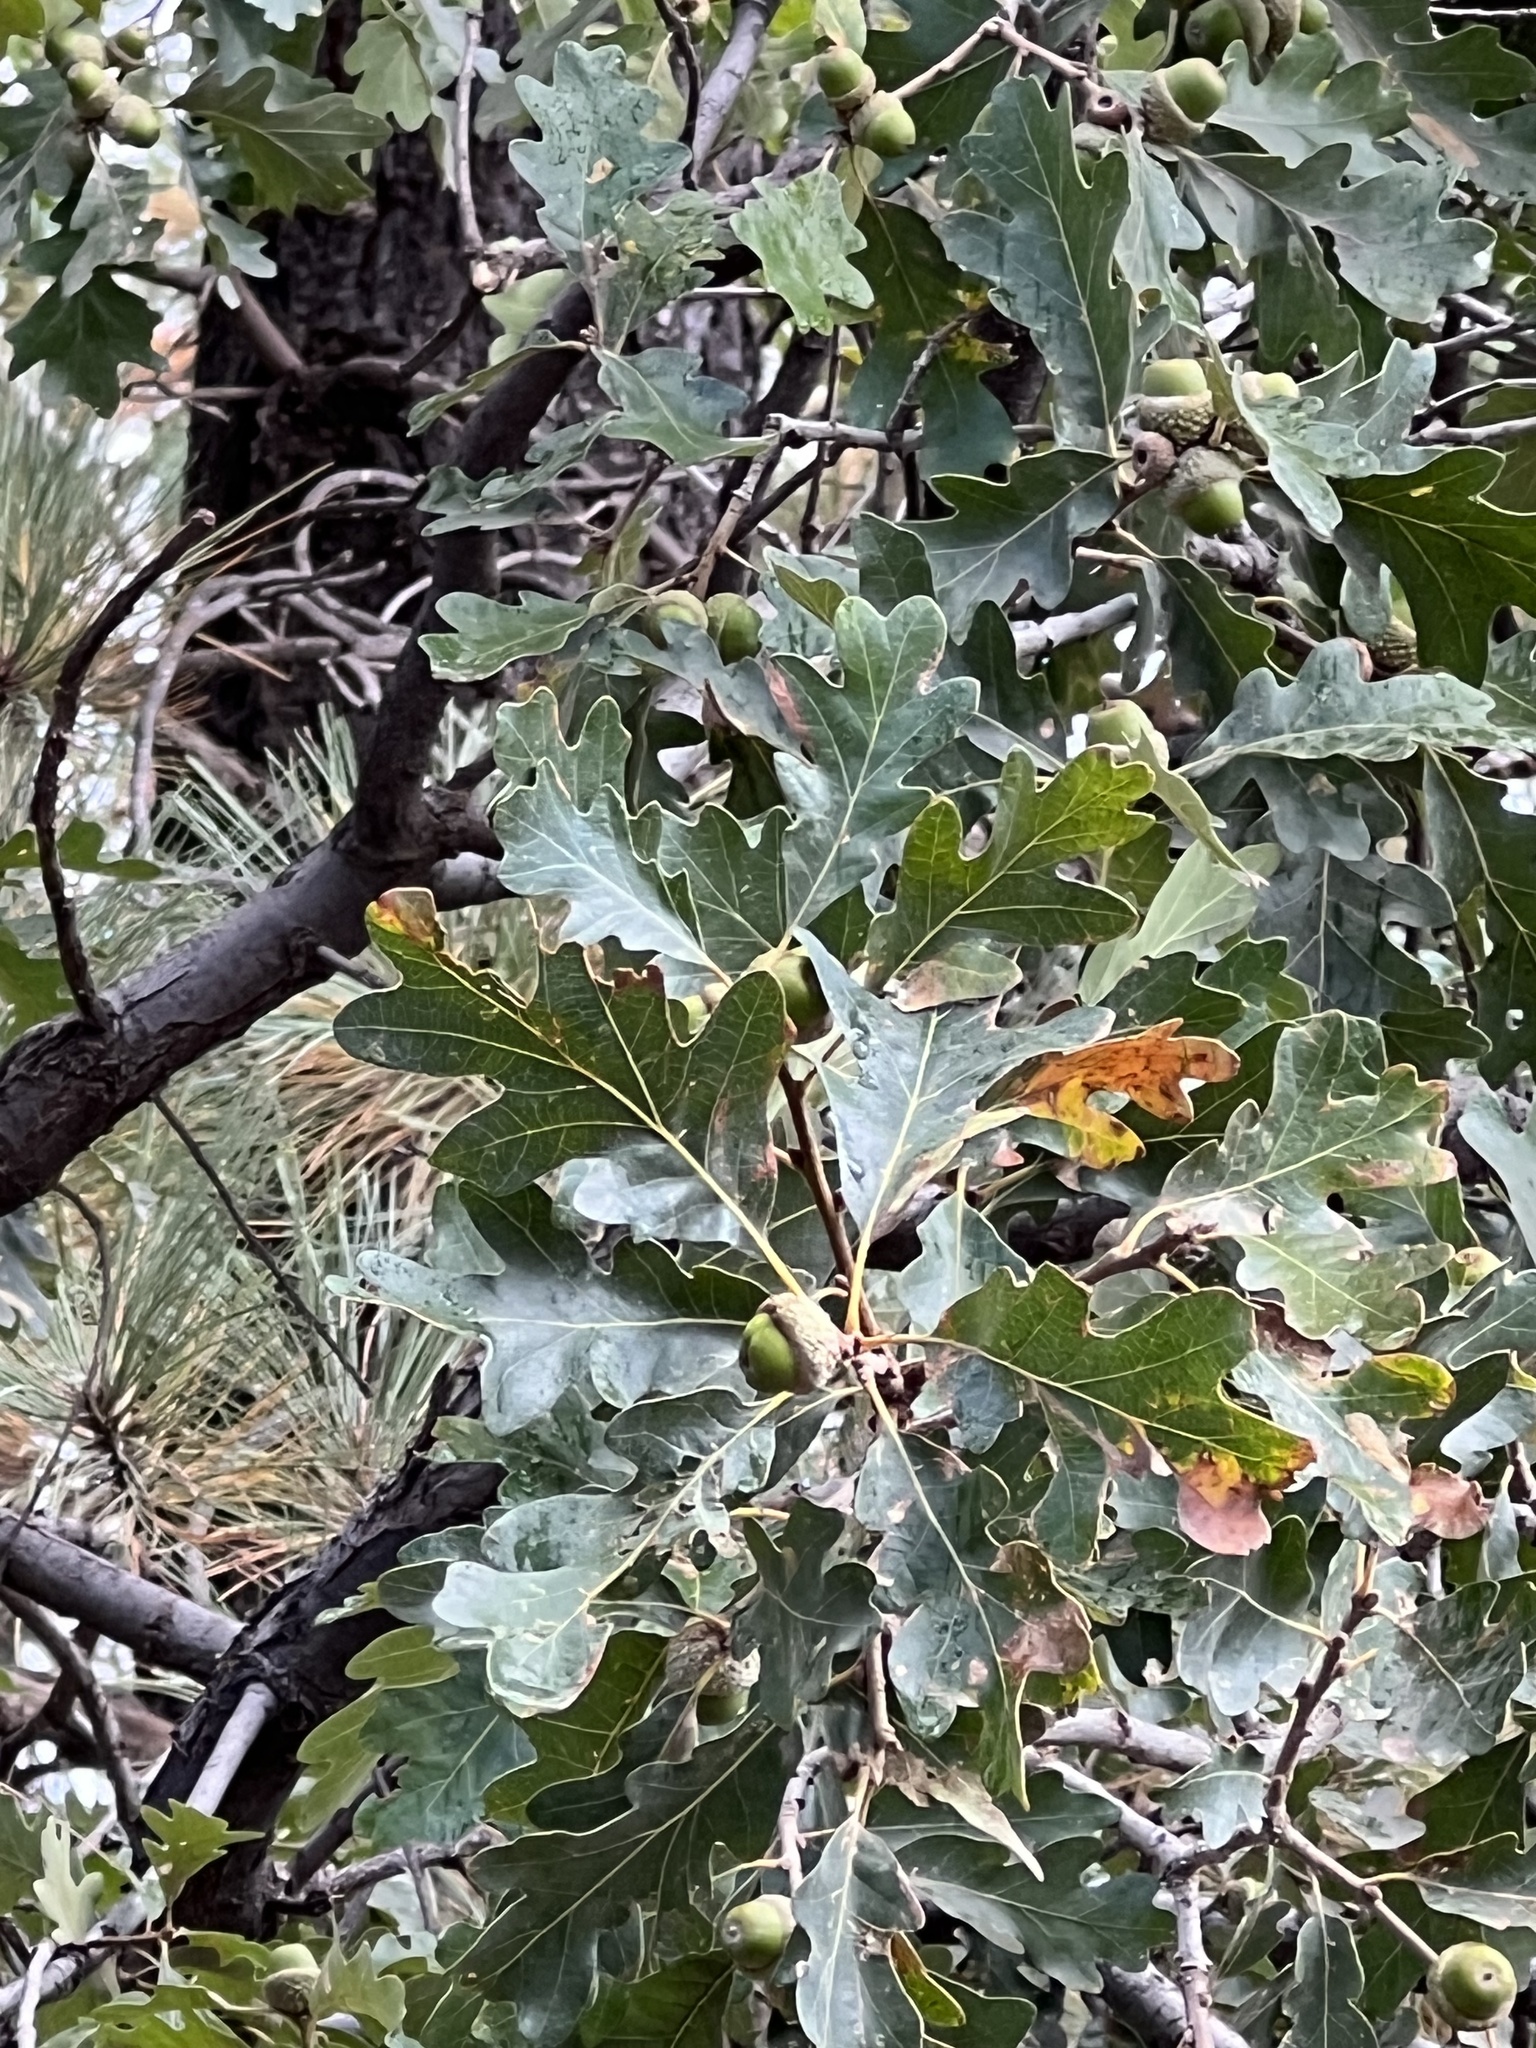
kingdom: Plantae
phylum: Tracheophyta
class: Magnoliopsida
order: Fagales
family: Fagaceae
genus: Quercus
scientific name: Quercus gambelii
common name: Gambel oak
